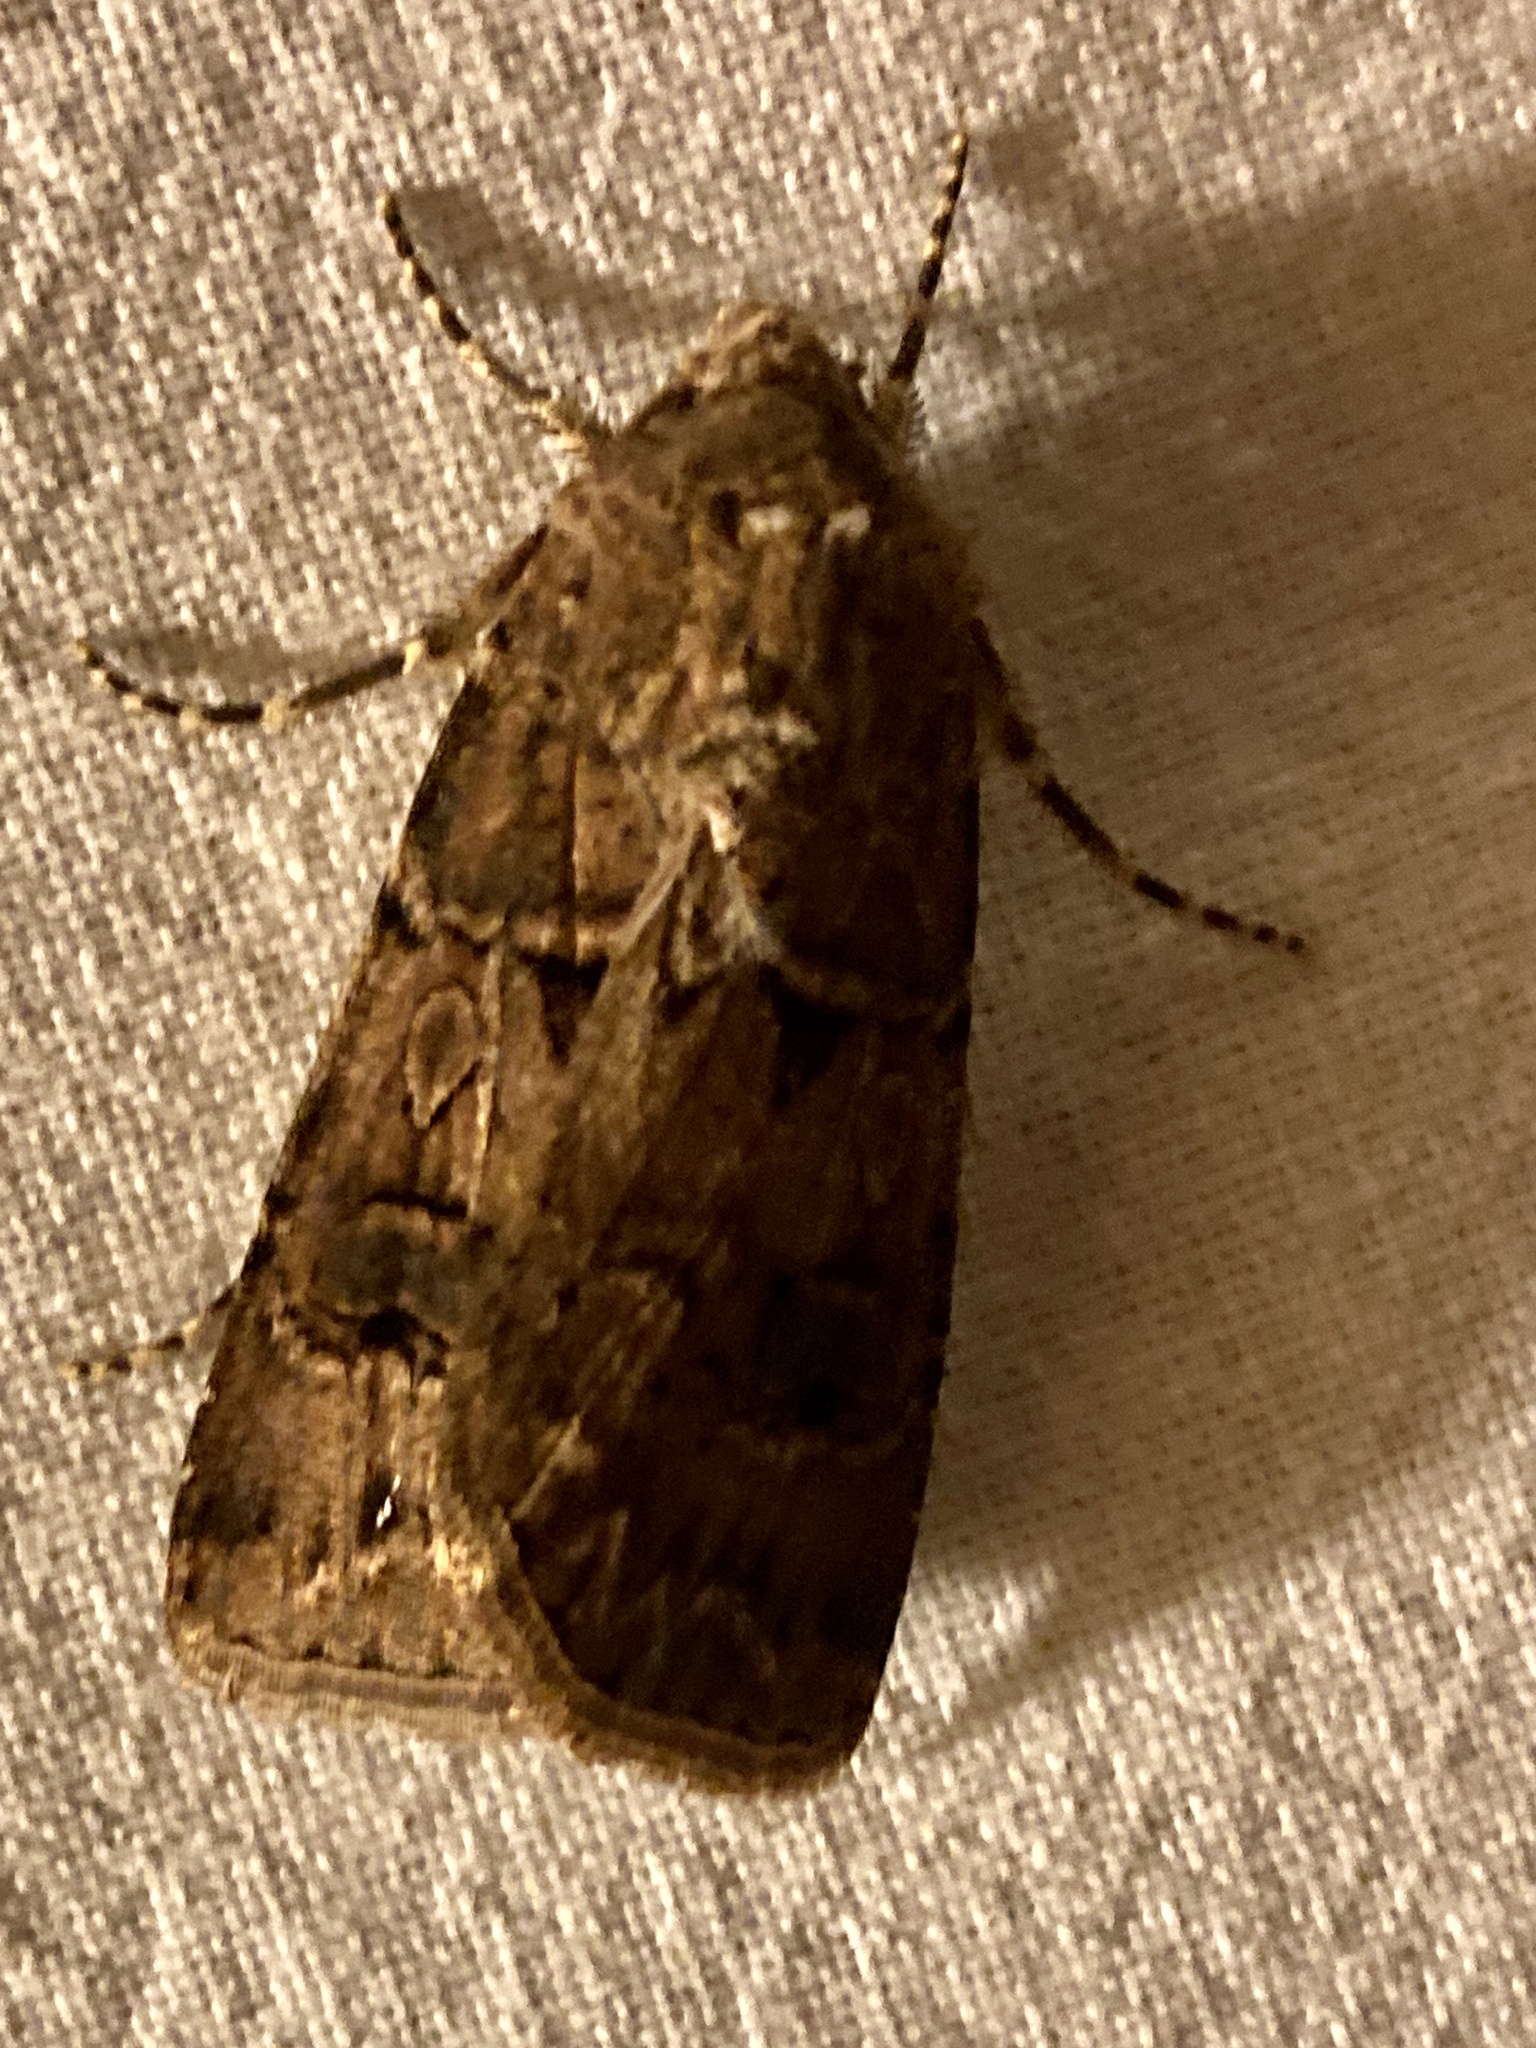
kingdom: Animalia
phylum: Arthropoda
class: Insecta
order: Lepidoptera
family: Noctuidae
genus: Agrotis
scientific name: Agrotis bigramma
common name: Great dart
